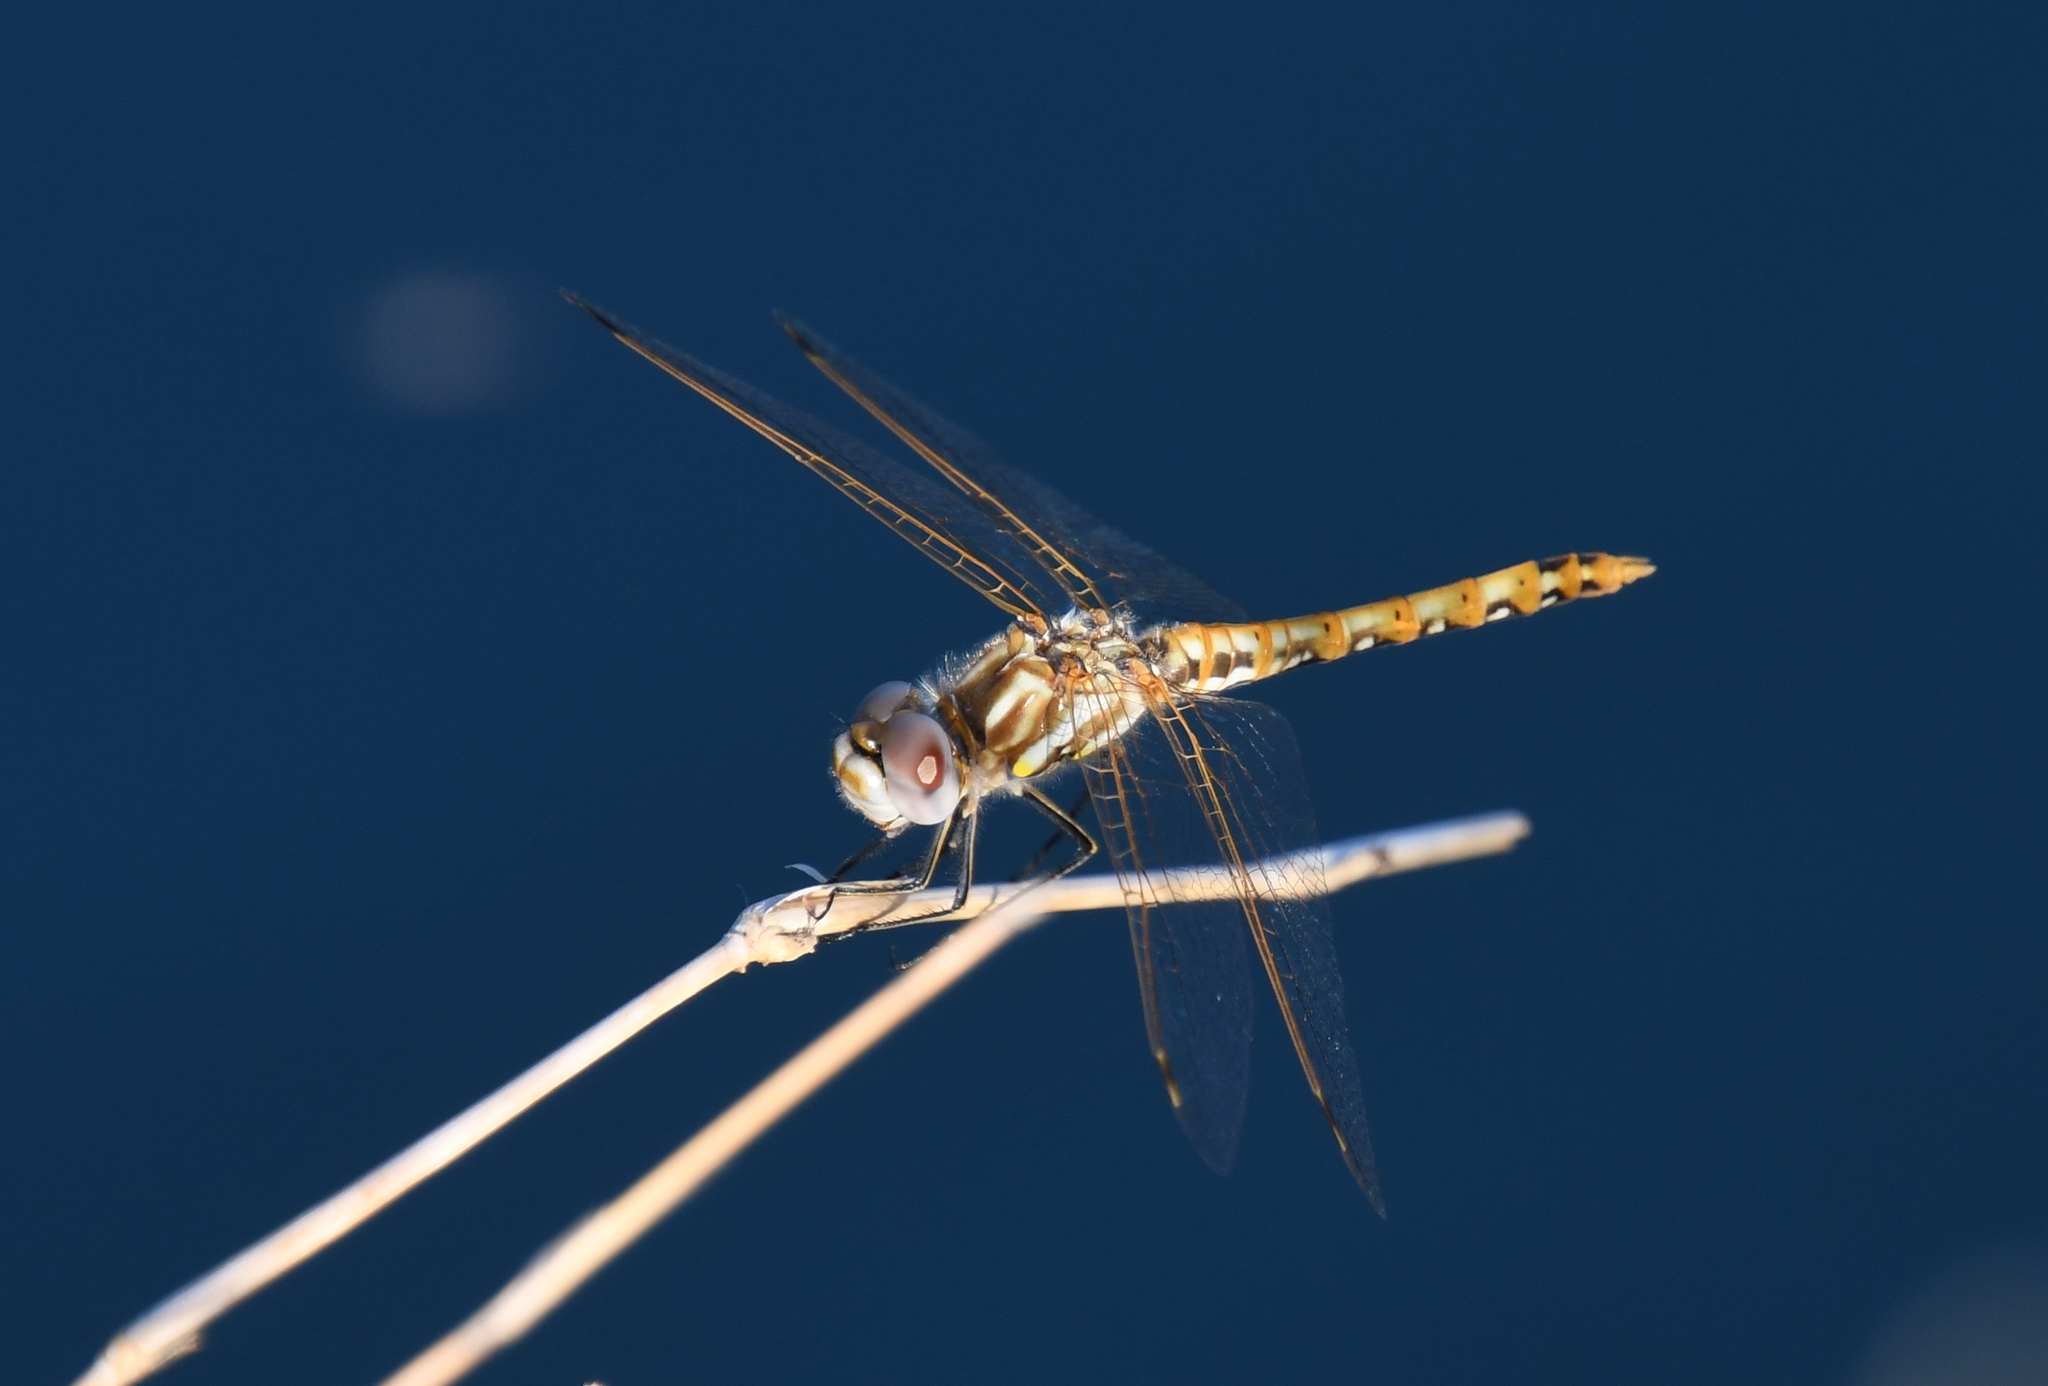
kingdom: Animalia
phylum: Arthropoda
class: Insecta
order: Odonata
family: Libellulidae
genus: Sympetrum
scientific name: Sympetrum corruptum
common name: Variegated meadowhawk
